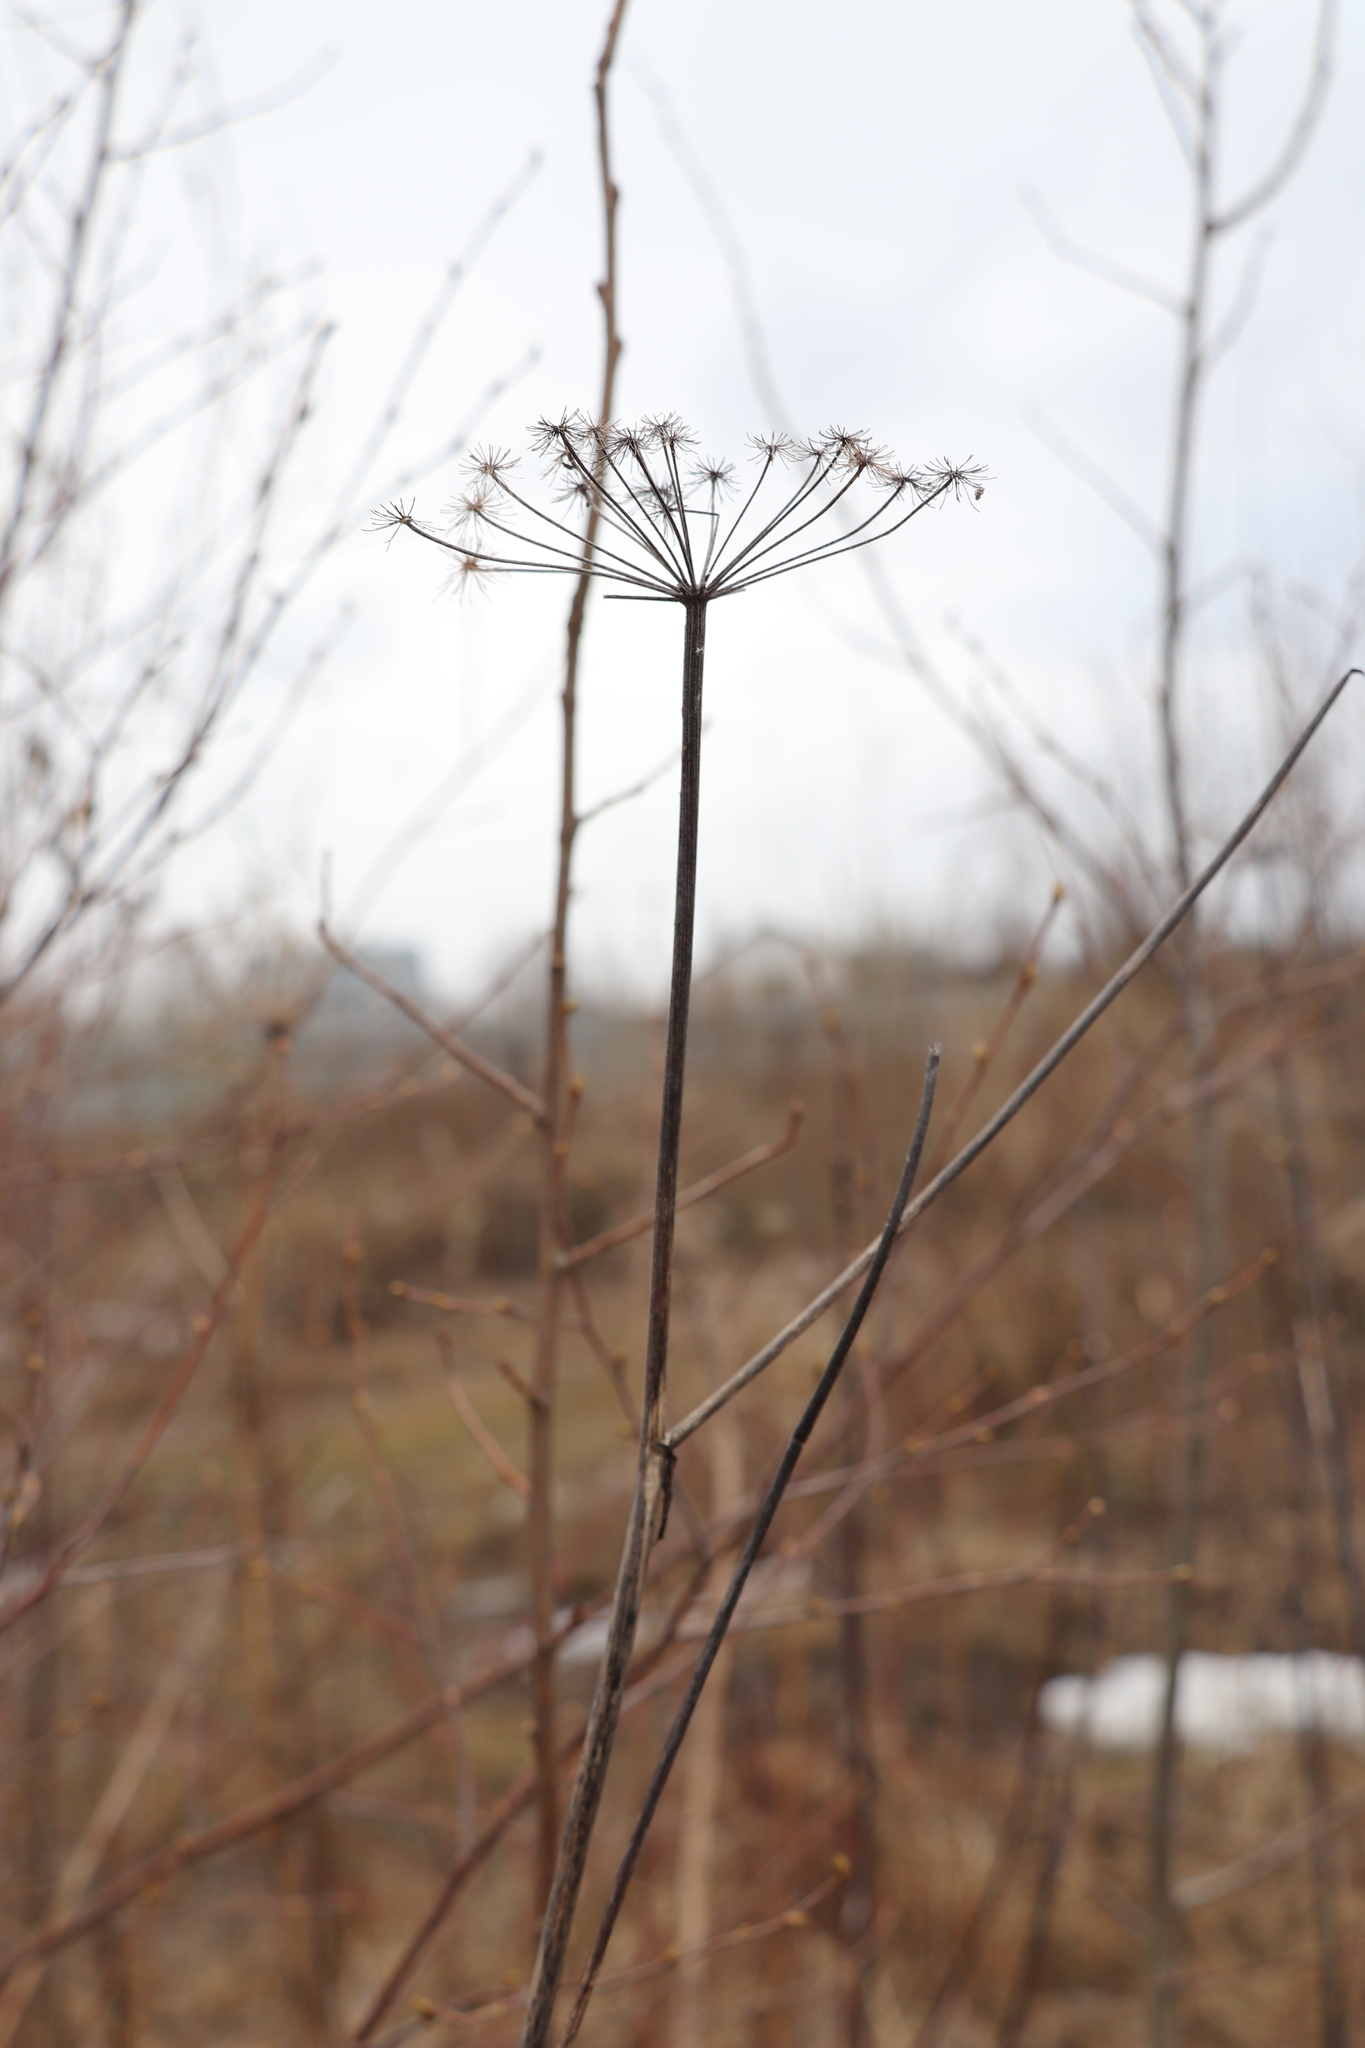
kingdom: Plantae
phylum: Tracheophyta
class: Magnoliopsida
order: Apiales
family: Apiaceae
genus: Angelica
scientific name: Angelica sylvestris
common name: Wild angelica
